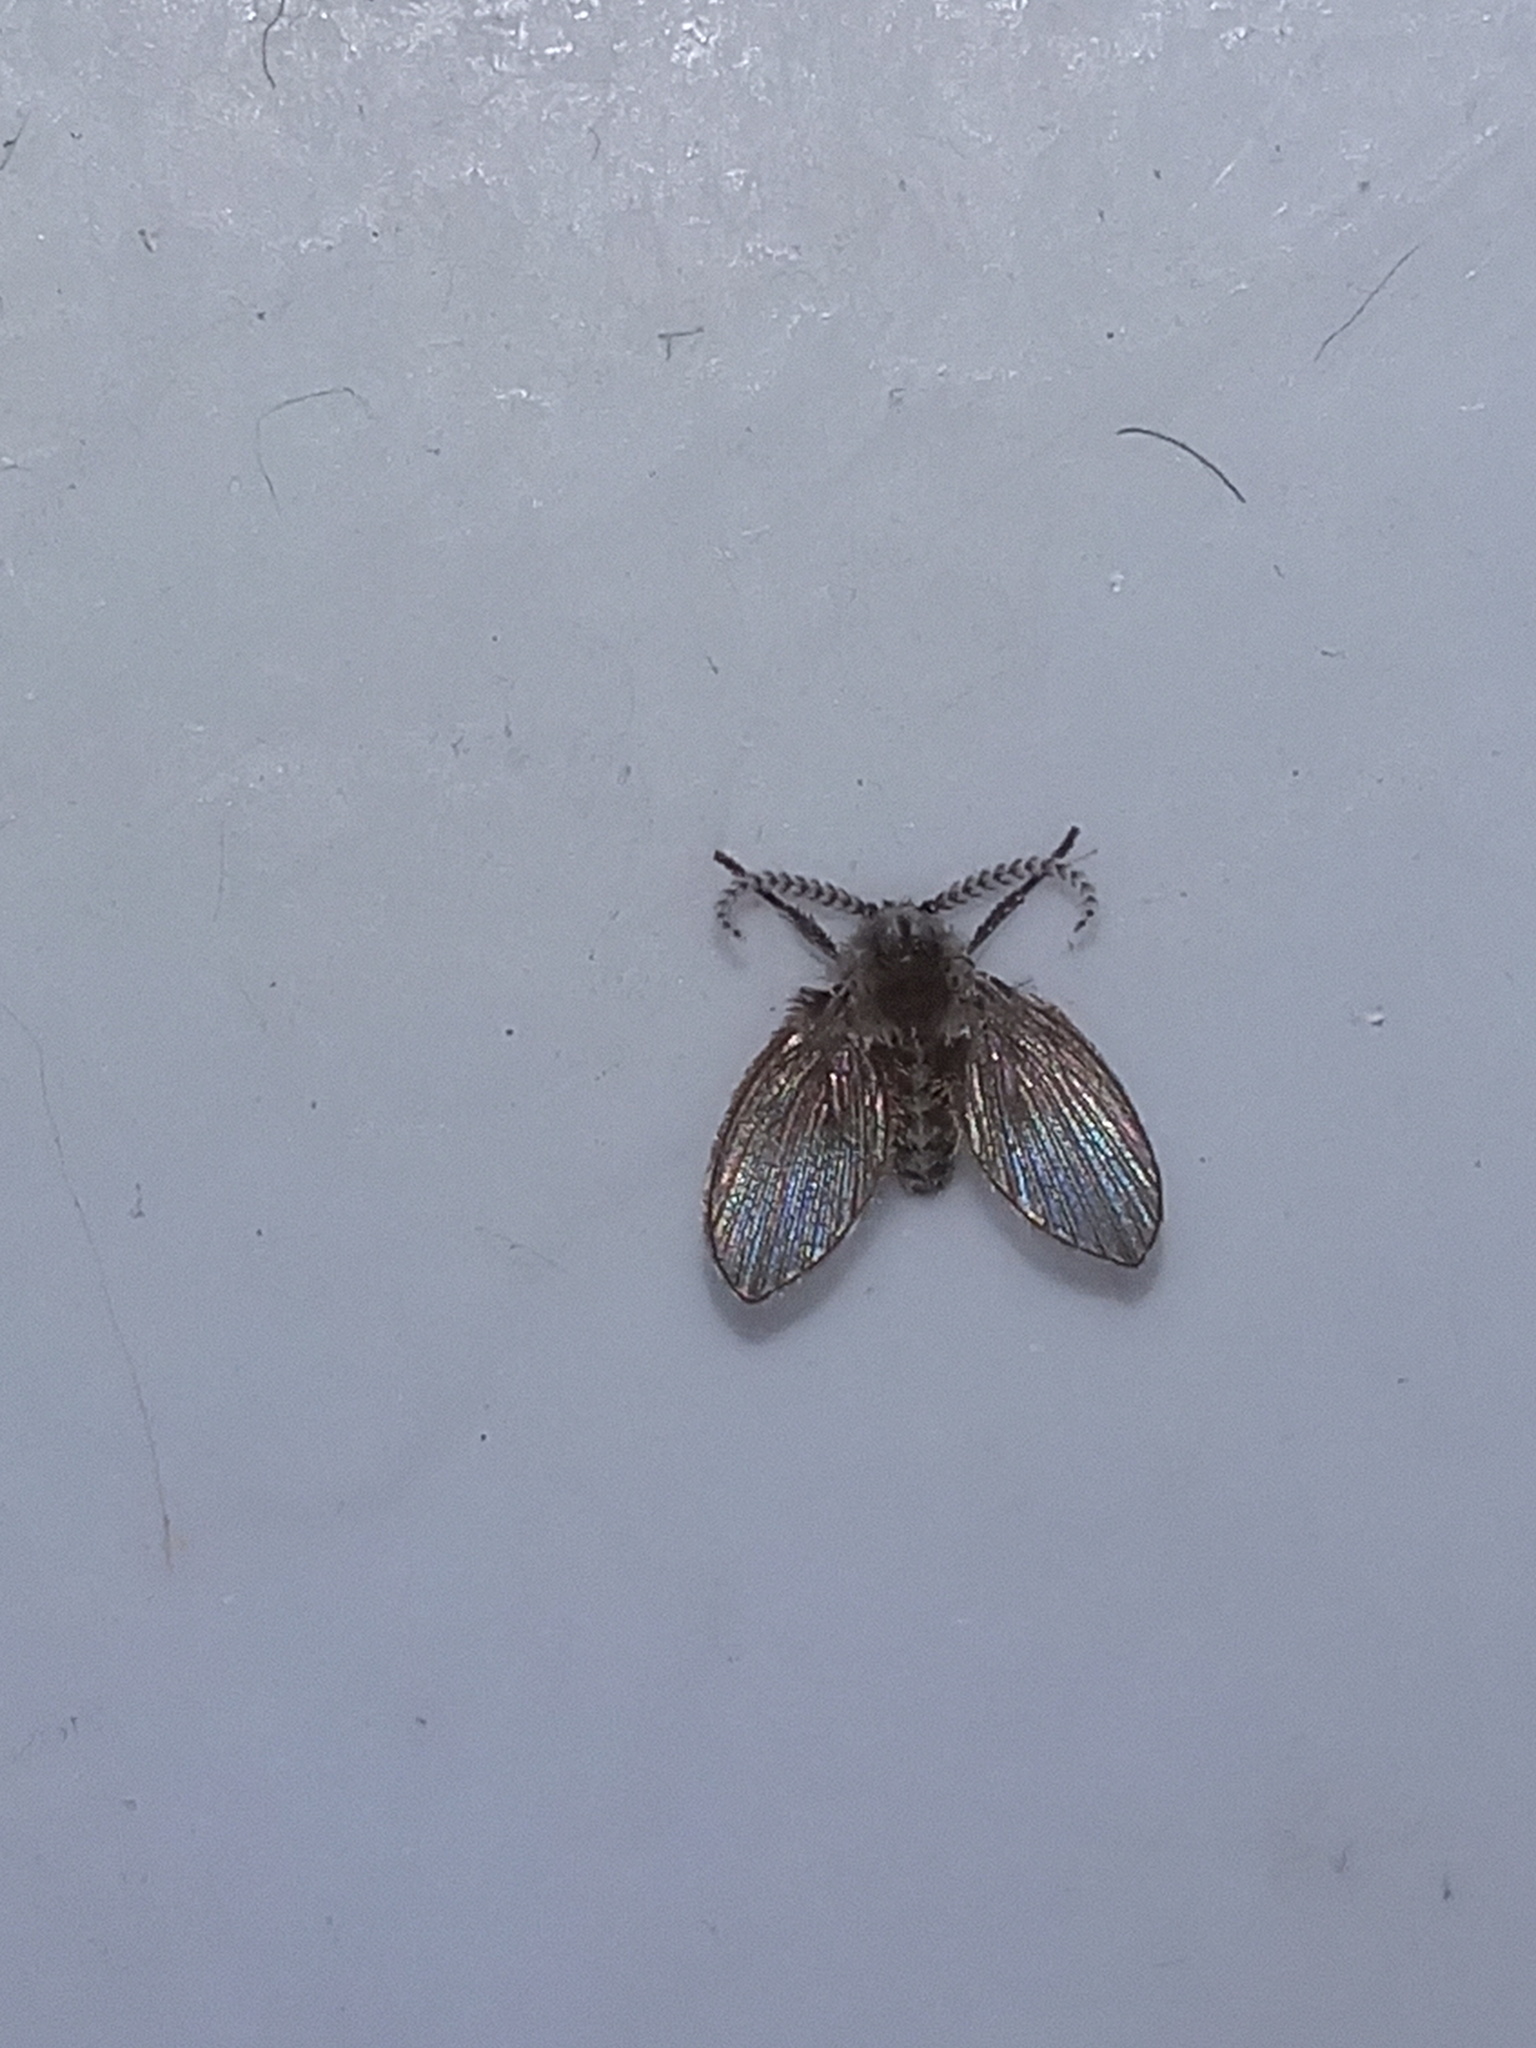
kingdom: Animalia
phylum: Arthropoda
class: Insecta
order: Diptera
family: Psychodidae
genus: Clogmia
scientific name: Clogmia albipunctatus
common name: White-spotted moth fly
